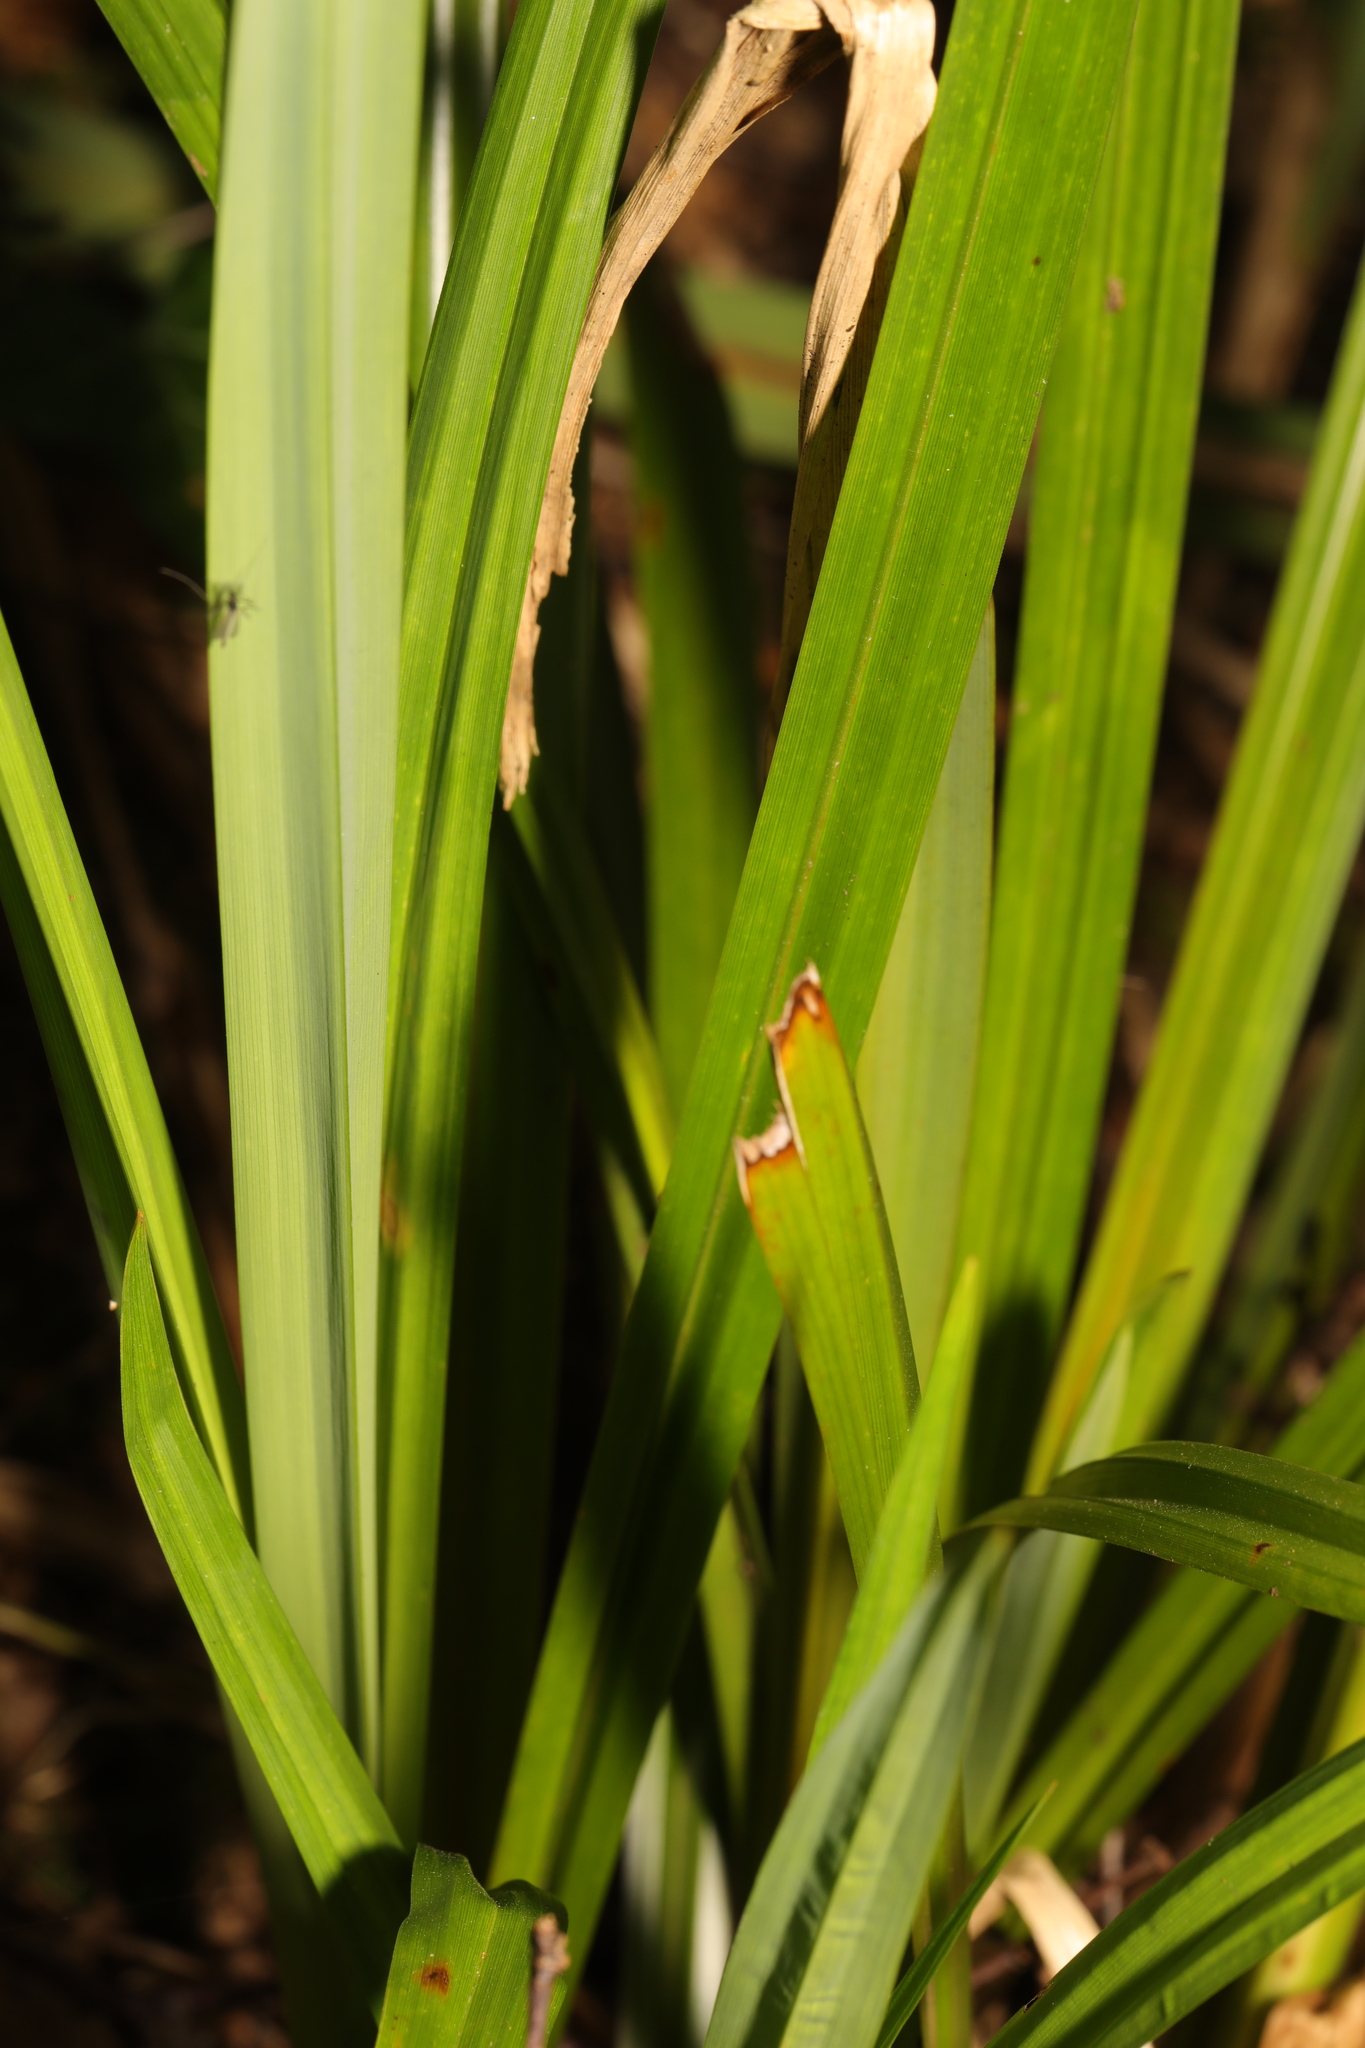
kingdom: Plantae
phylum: Tracheophyta
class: Liliopsida
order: Poales
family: Cyperaceae
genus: Carex
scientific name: Carex pendula
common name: Pendulous sedge
